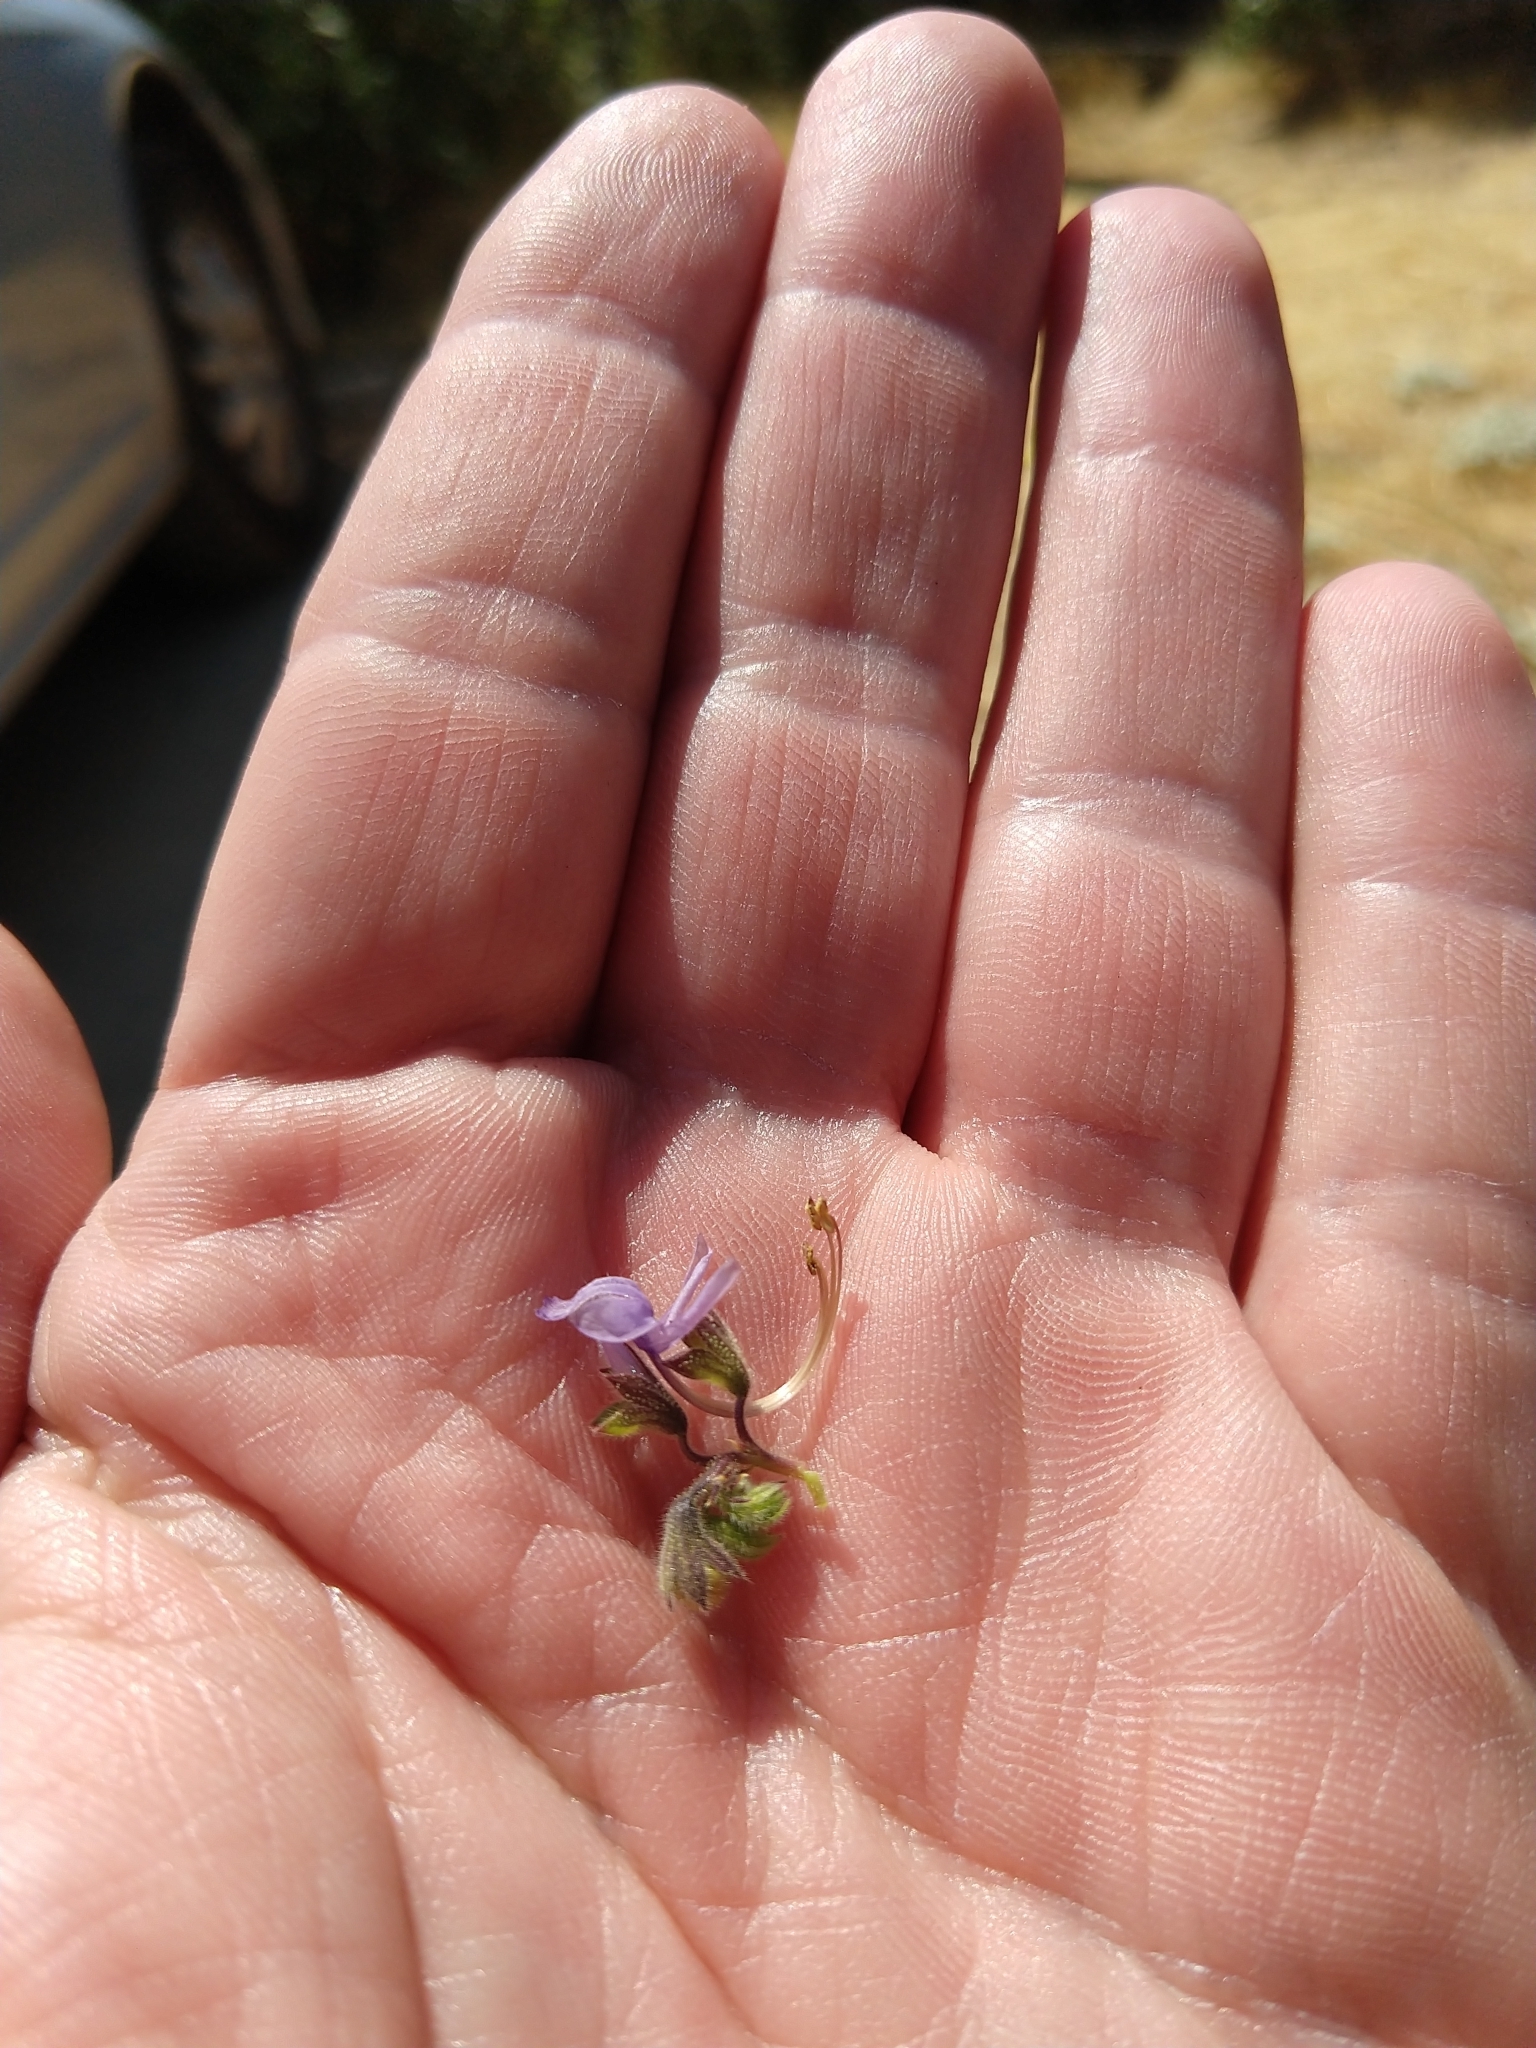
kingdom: Plantae
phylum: Tracheophyta
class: Magnoliopsida
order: Lamiales
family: Lamiaceae
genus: Trichostema
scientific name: Trichostema lanceolatum
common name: Vinegar-weed
